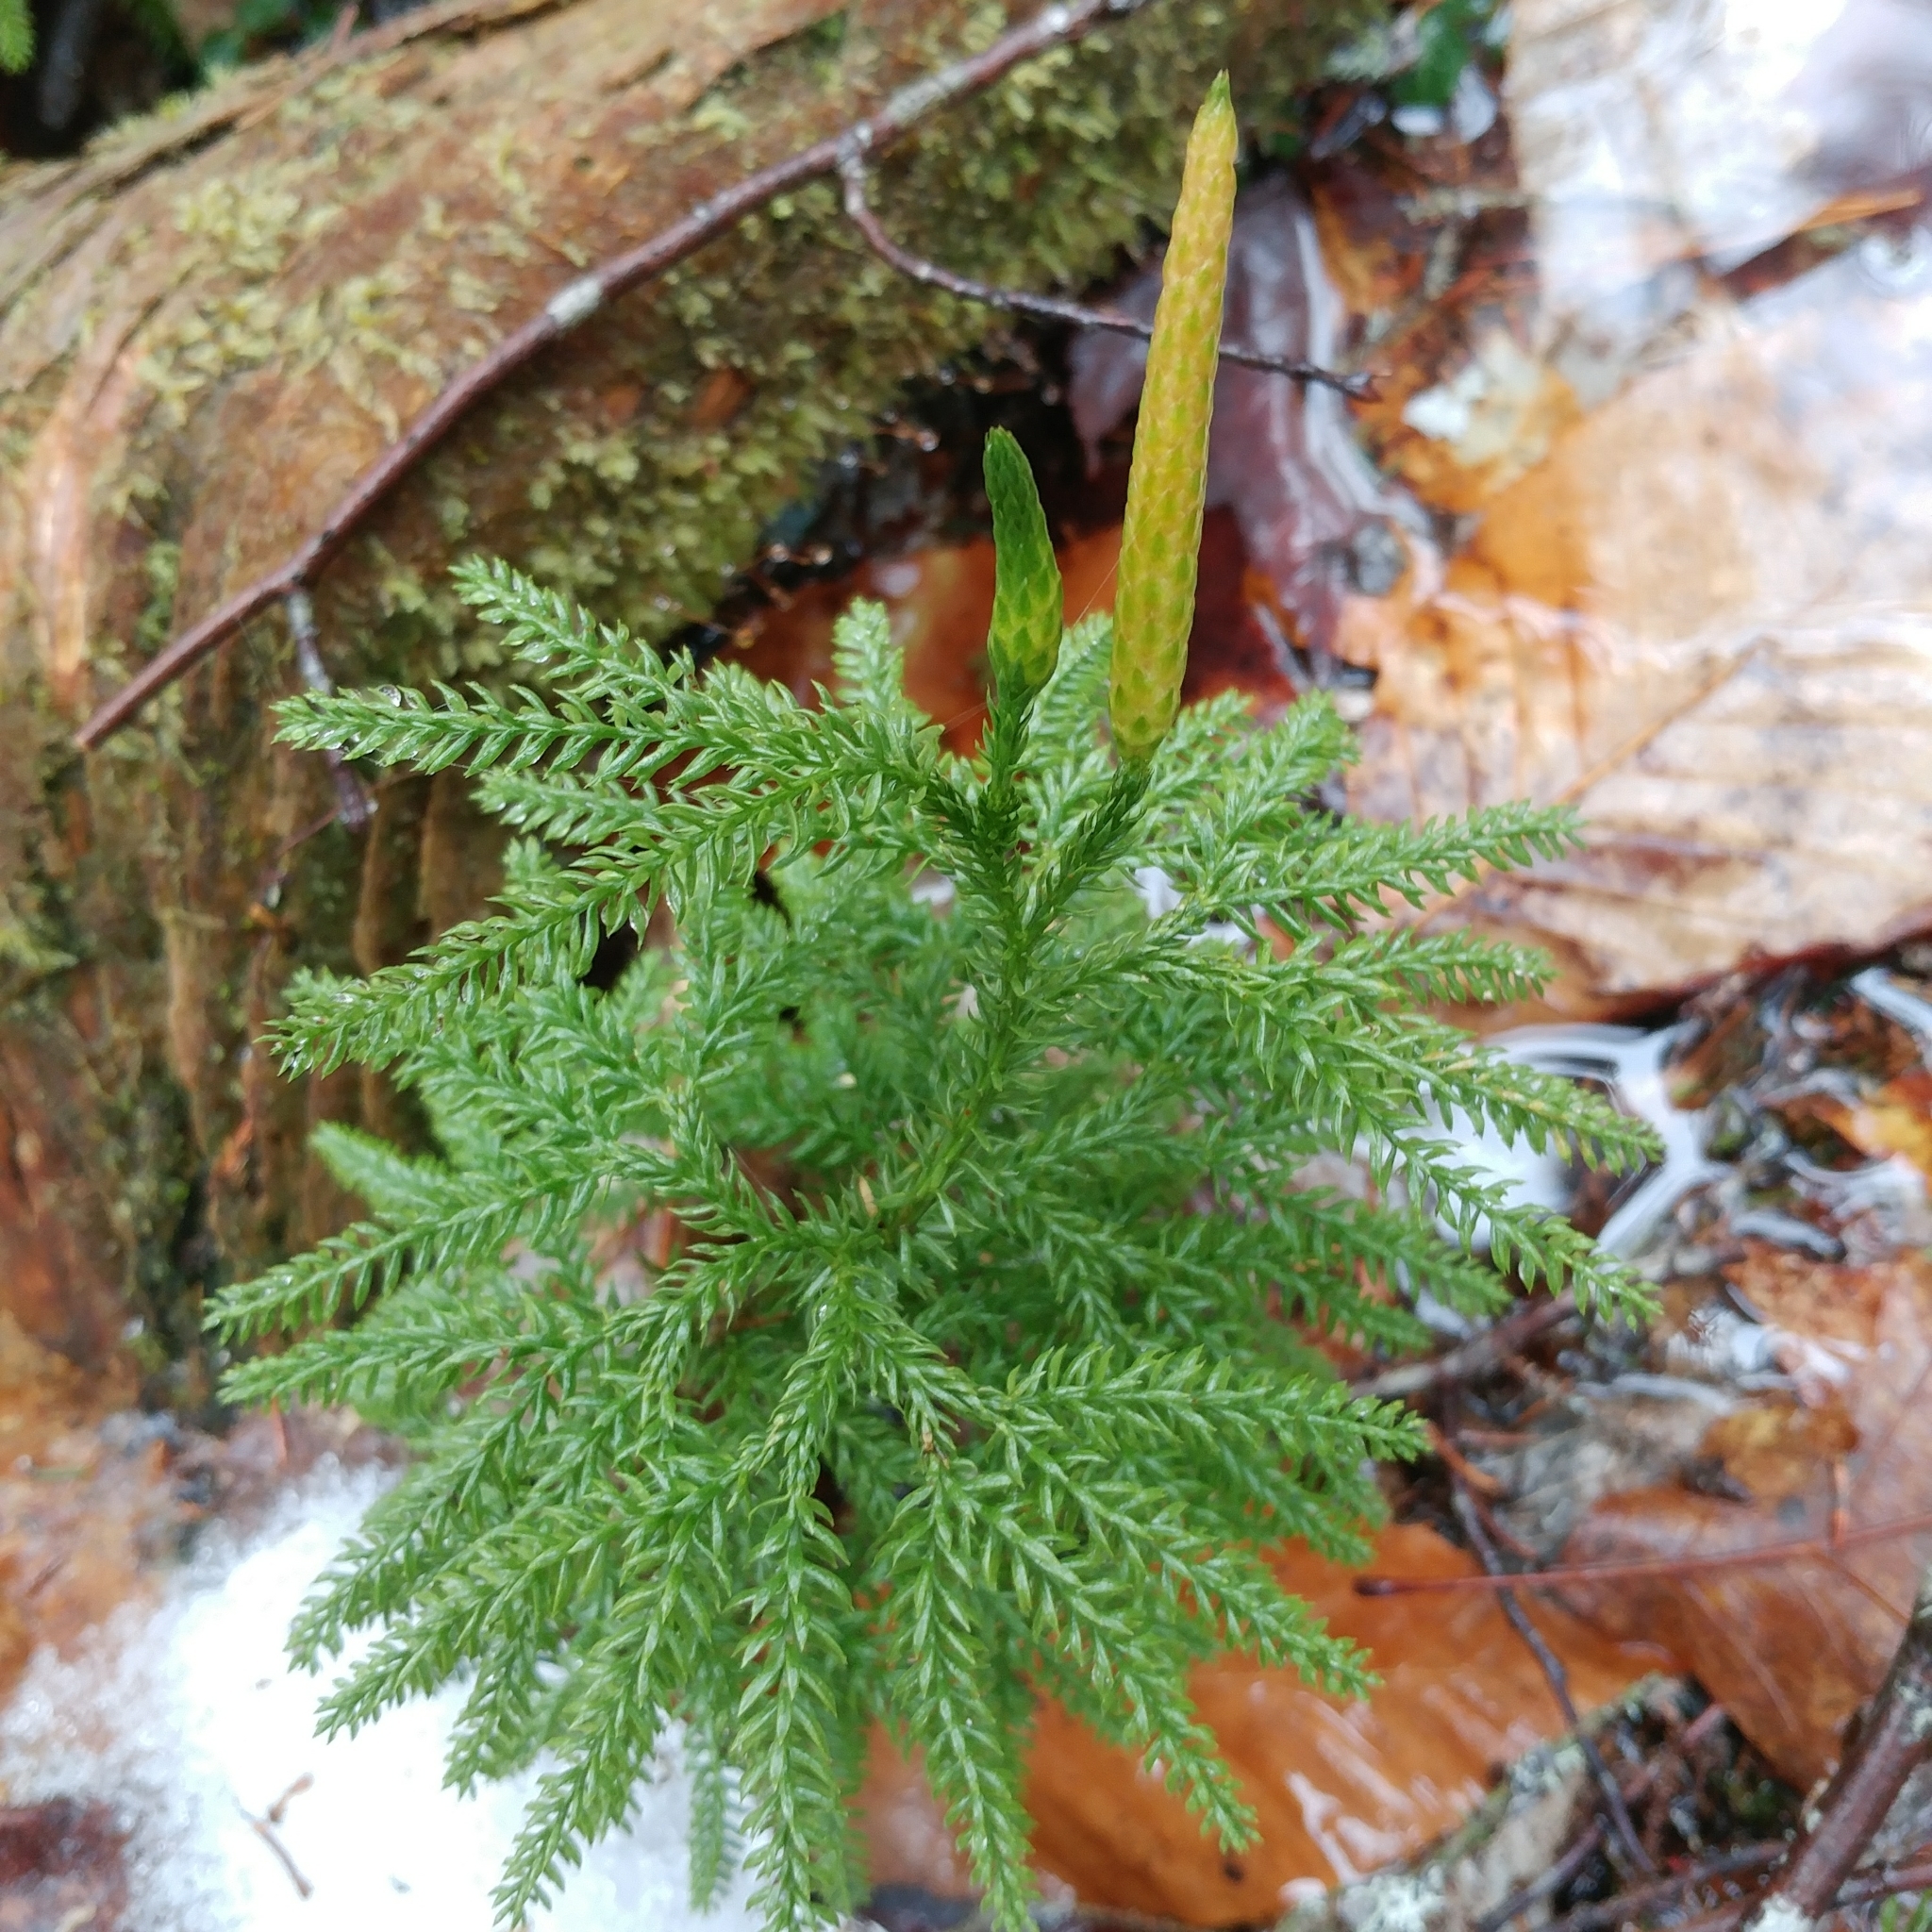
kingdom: Plantae
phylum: Tracheophyta
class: Lycopodiopsida
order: Lycopodiales
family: Lycopodiaceae
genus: Dendrolycopodium
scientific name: Dendrolycopodium dendroideum
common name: Northern tree-clubmoss
